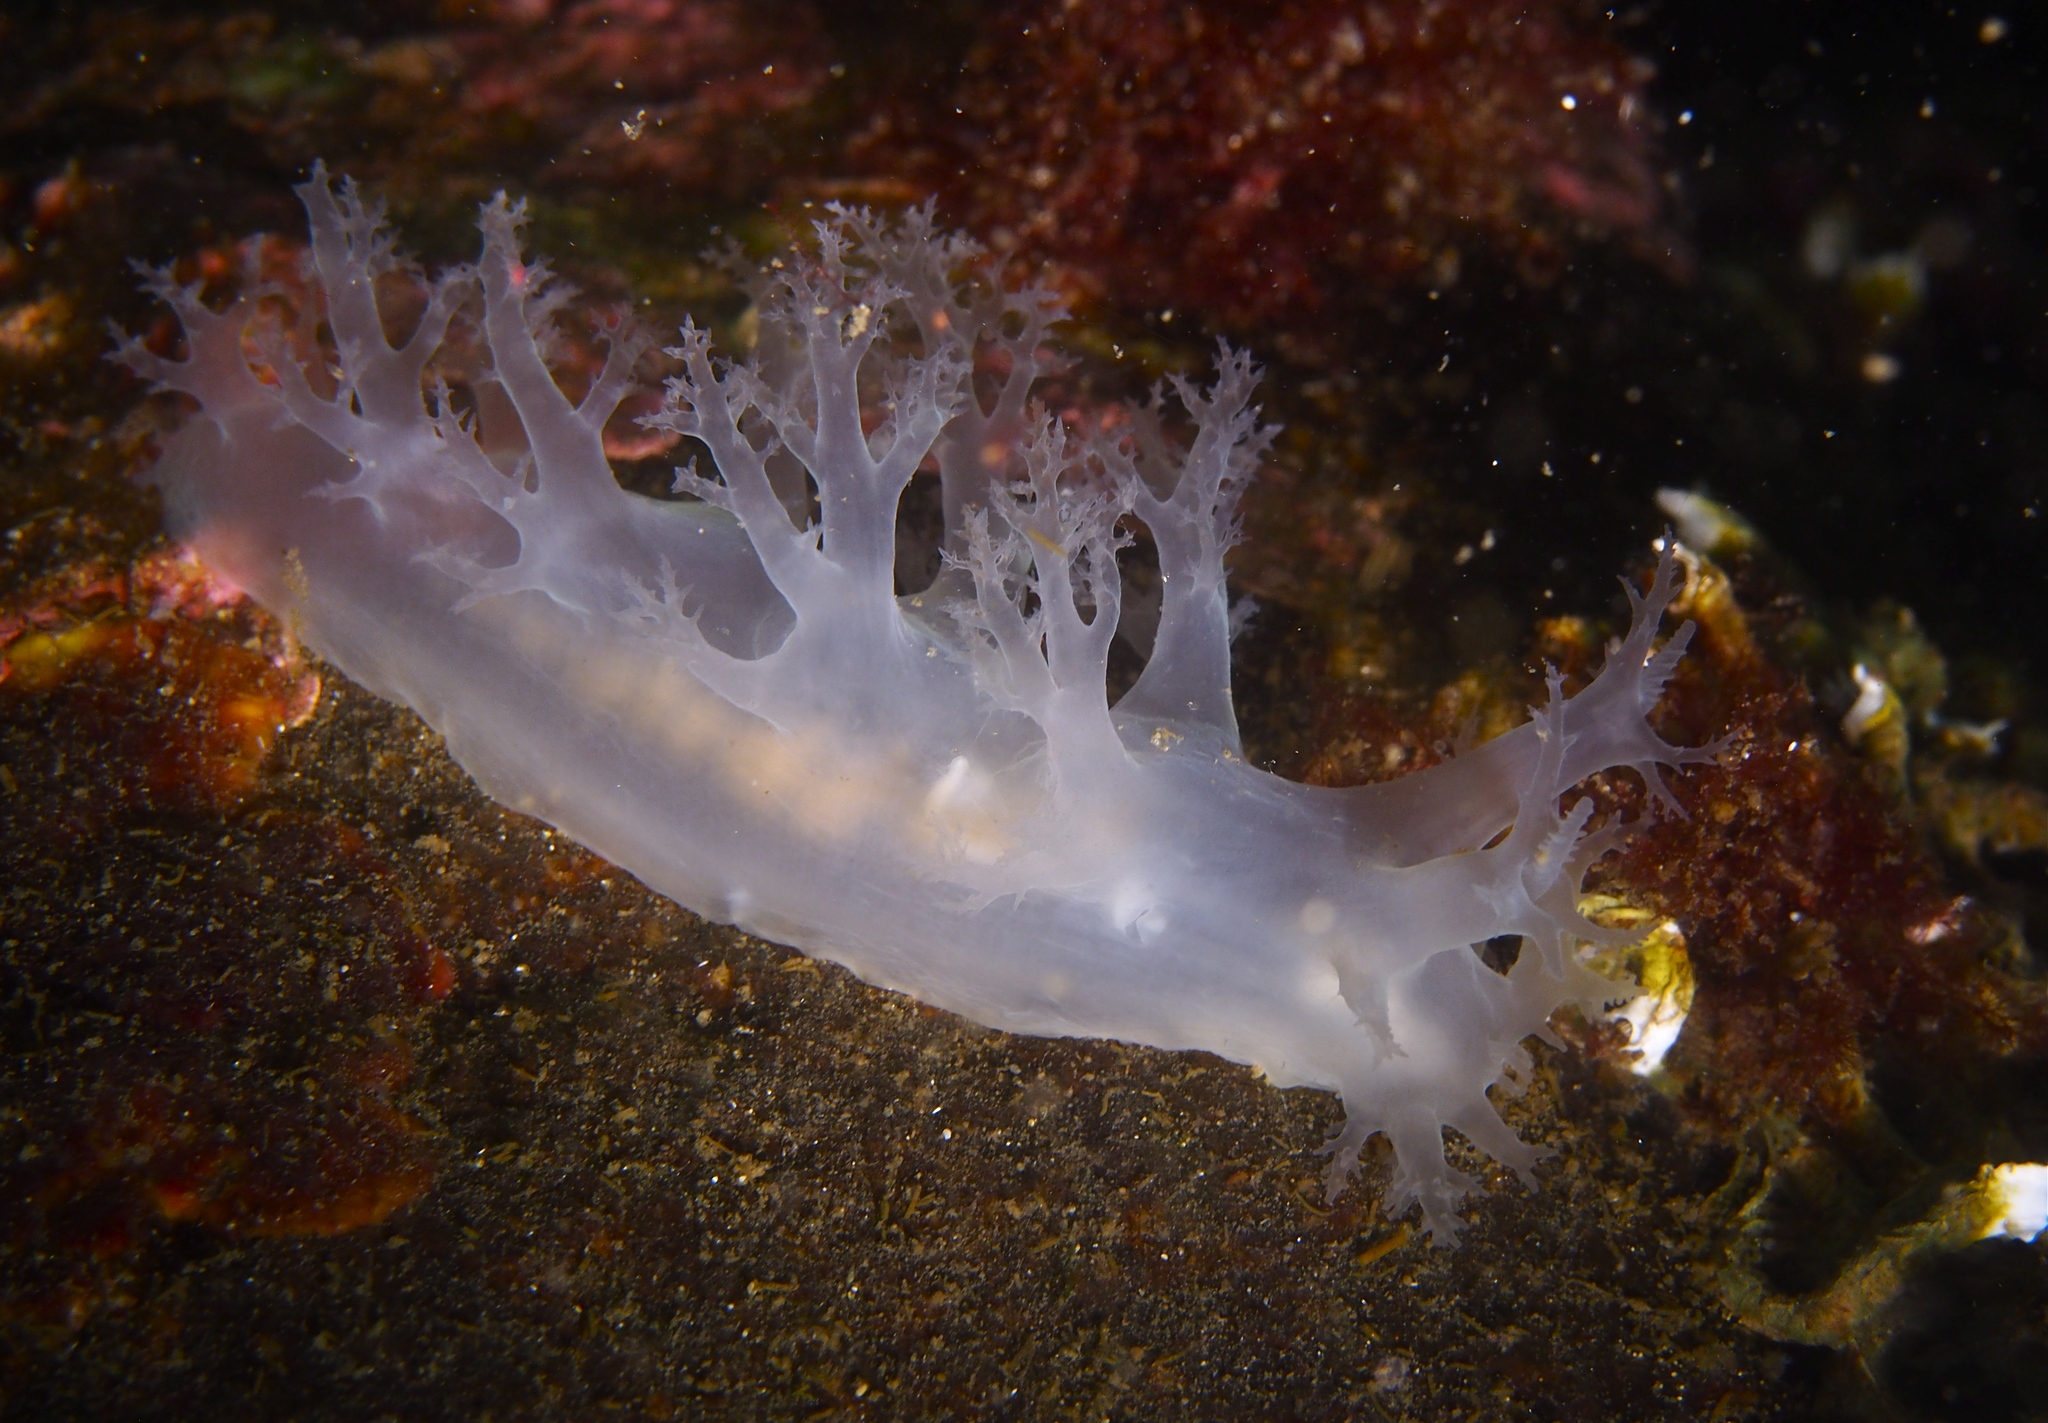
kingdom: Animalia
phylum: Mollusca
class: Gastropoda
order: Nudibranchia
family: Dendronotidae
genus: Dendronotus
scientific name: Dendronotus lacteus
